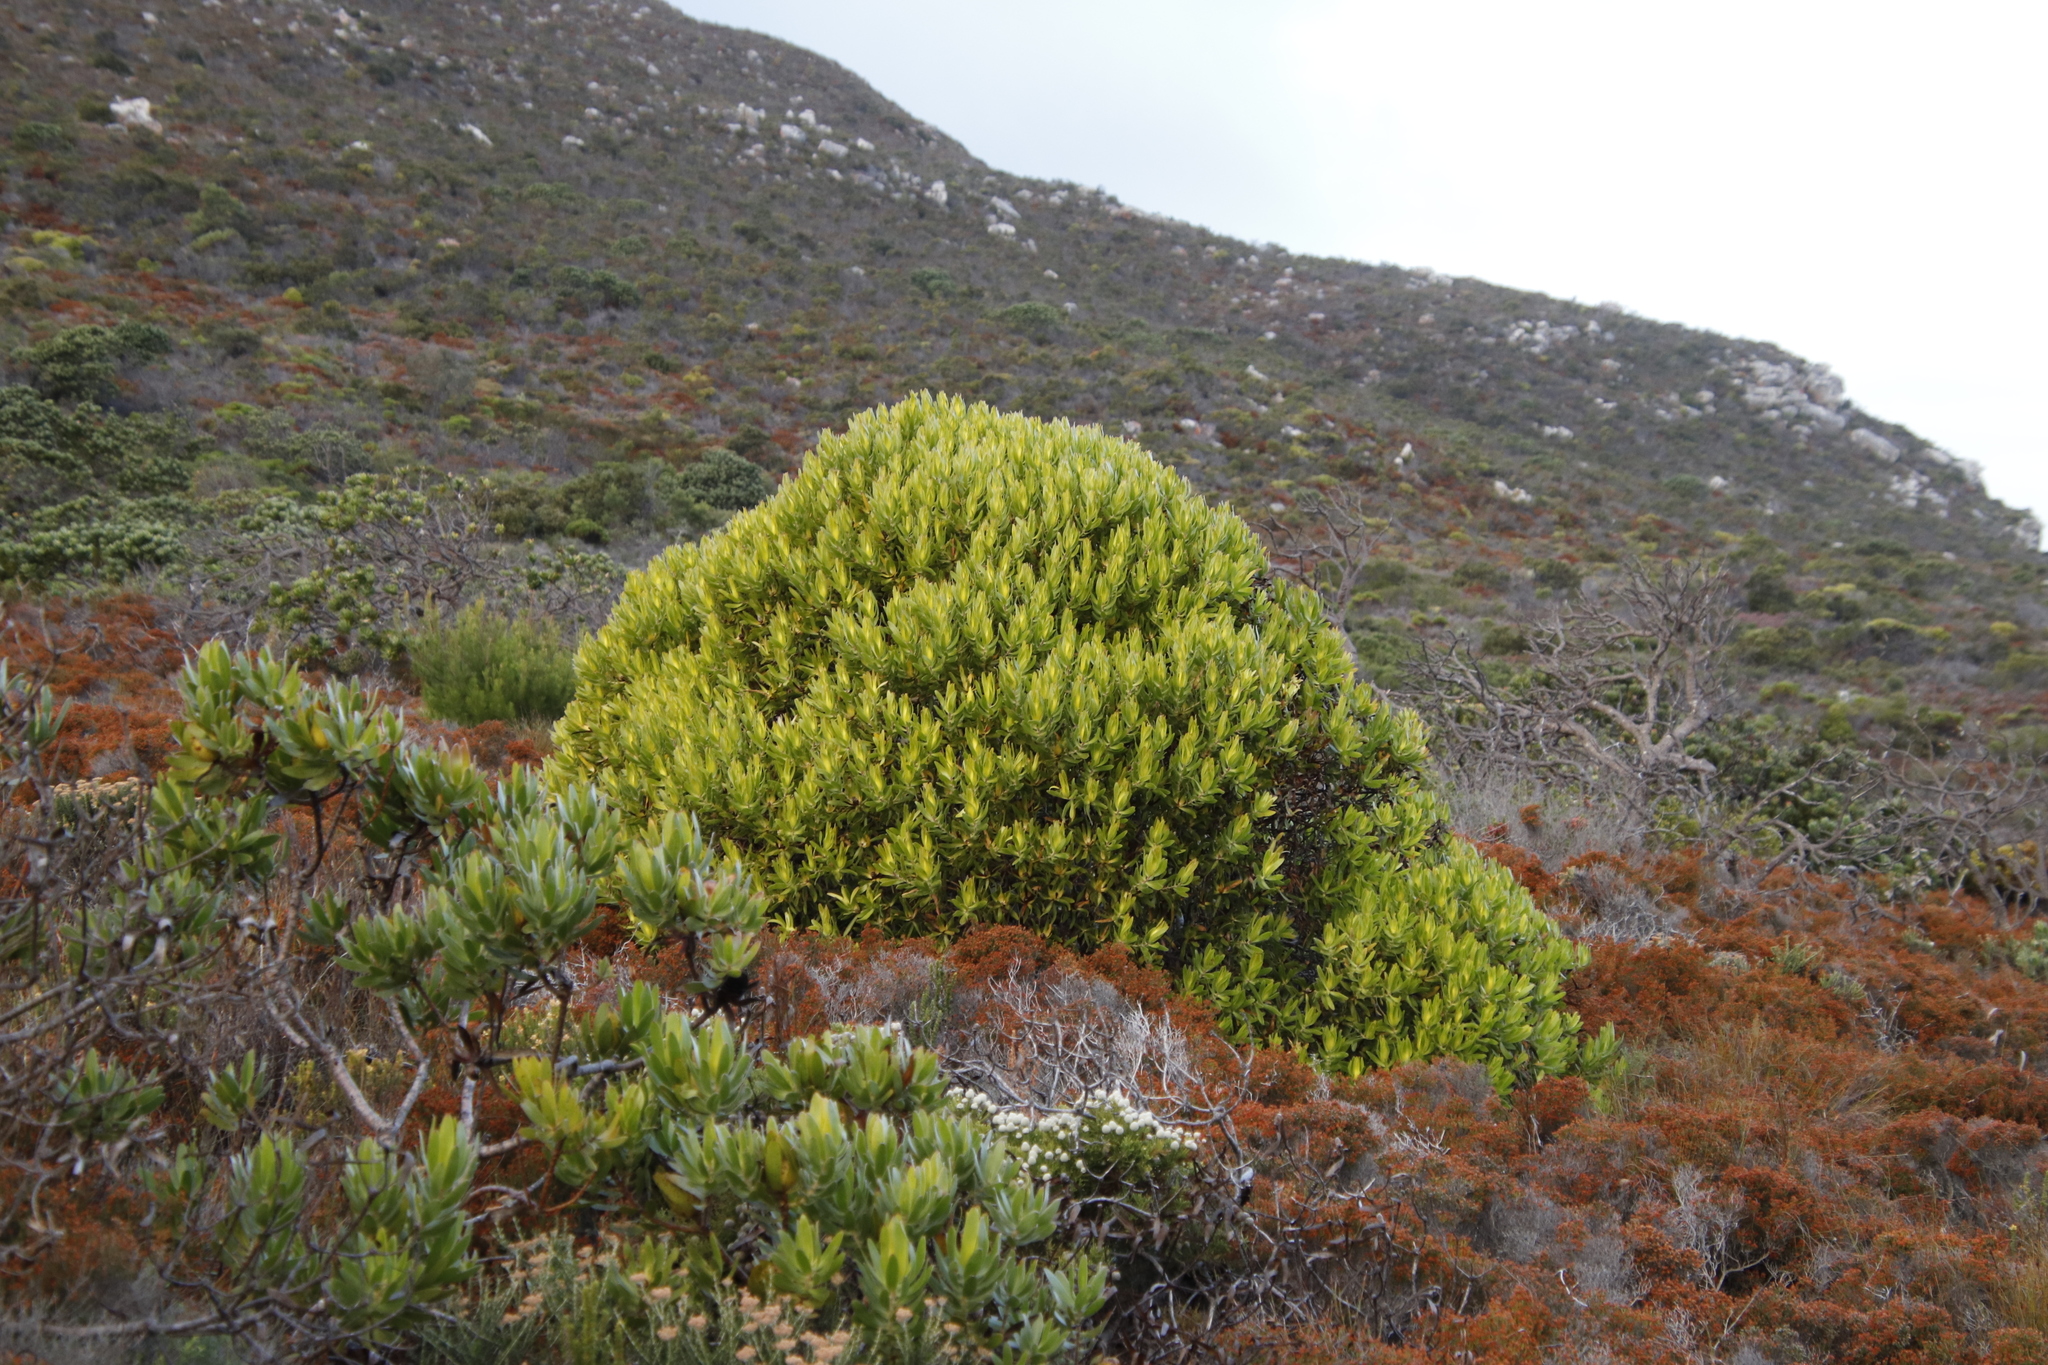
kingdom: Plantae
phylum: Tracheophyta
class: Magnoliopsida
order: Proteales
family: Proteaceae
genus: Leucadendron
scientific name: Leucadendron laureolum
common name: Golden sunshinebush
